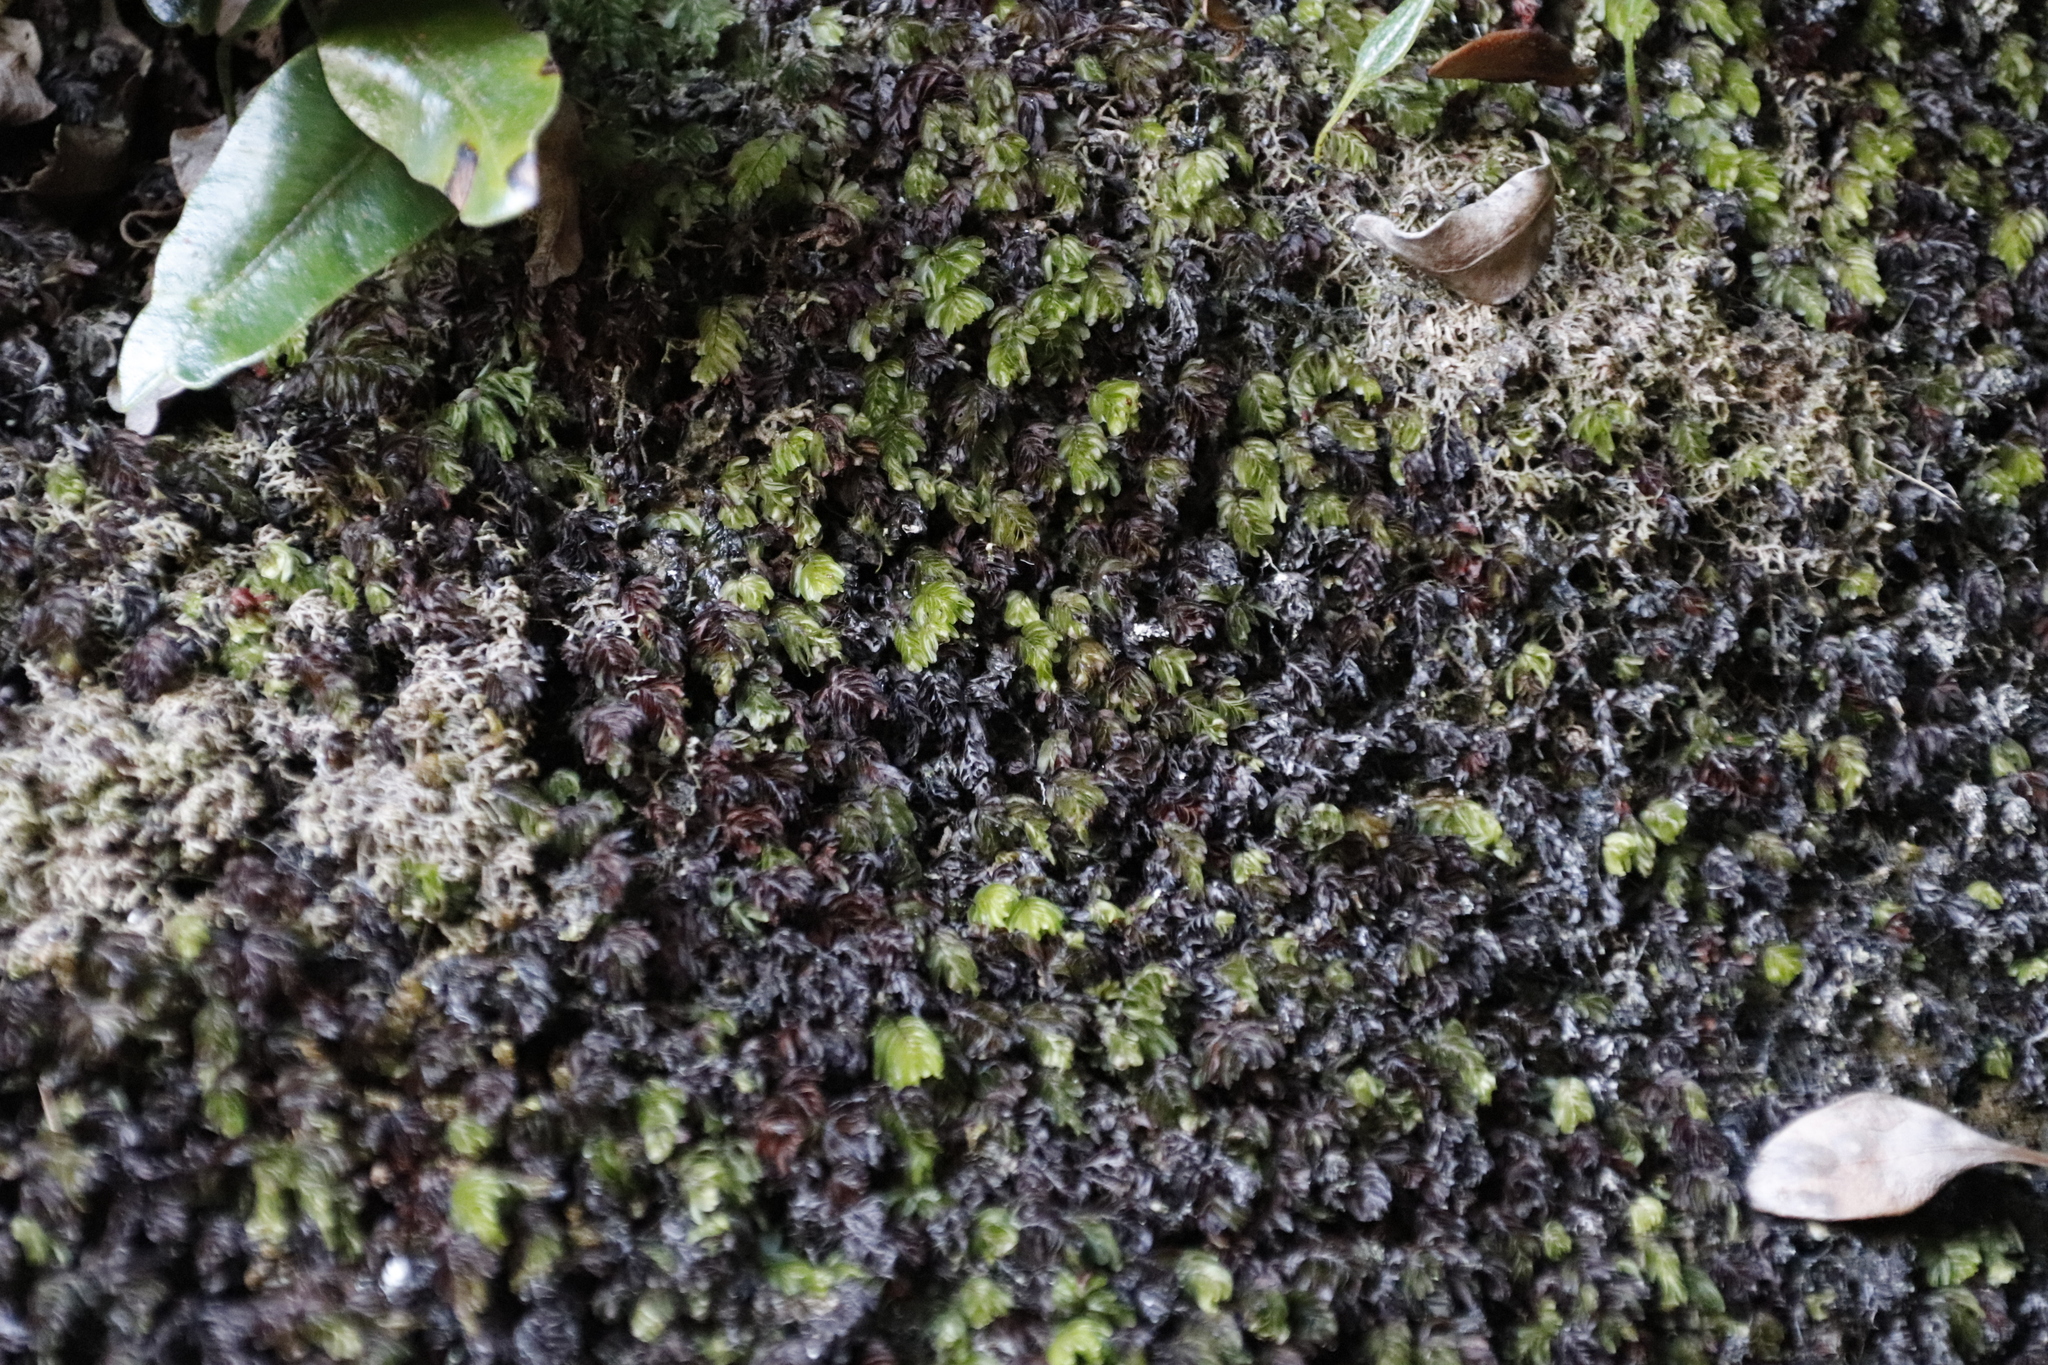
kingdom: Plantae
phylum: Tracheophyta
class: Polypodiopsida
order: Hymenophyllales
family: Hymenophyllaceae
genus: Hymenophyllum
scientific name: Hymenophyllum capense
